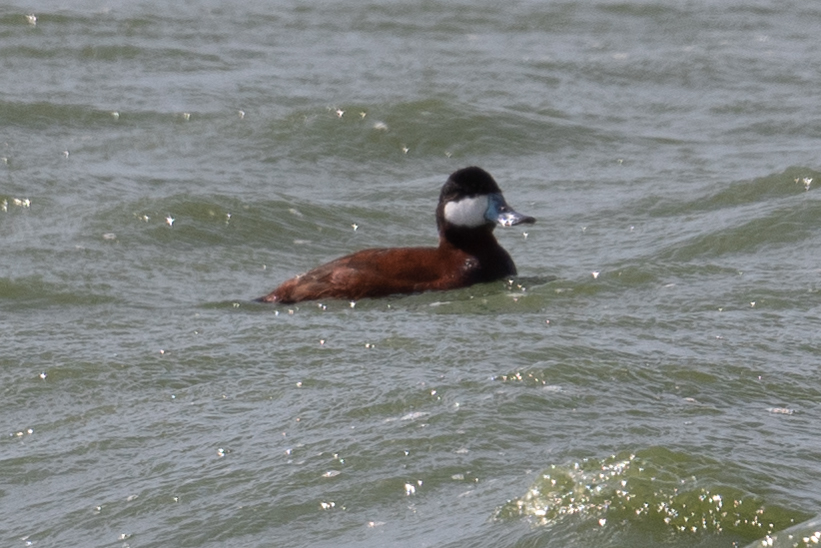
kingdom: Animalia
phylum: Chordata
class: Aves
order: Anseriformes
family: Anatidae
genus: Oxyura
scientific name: Oxyura jamaicensis
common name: Ruddy duck
